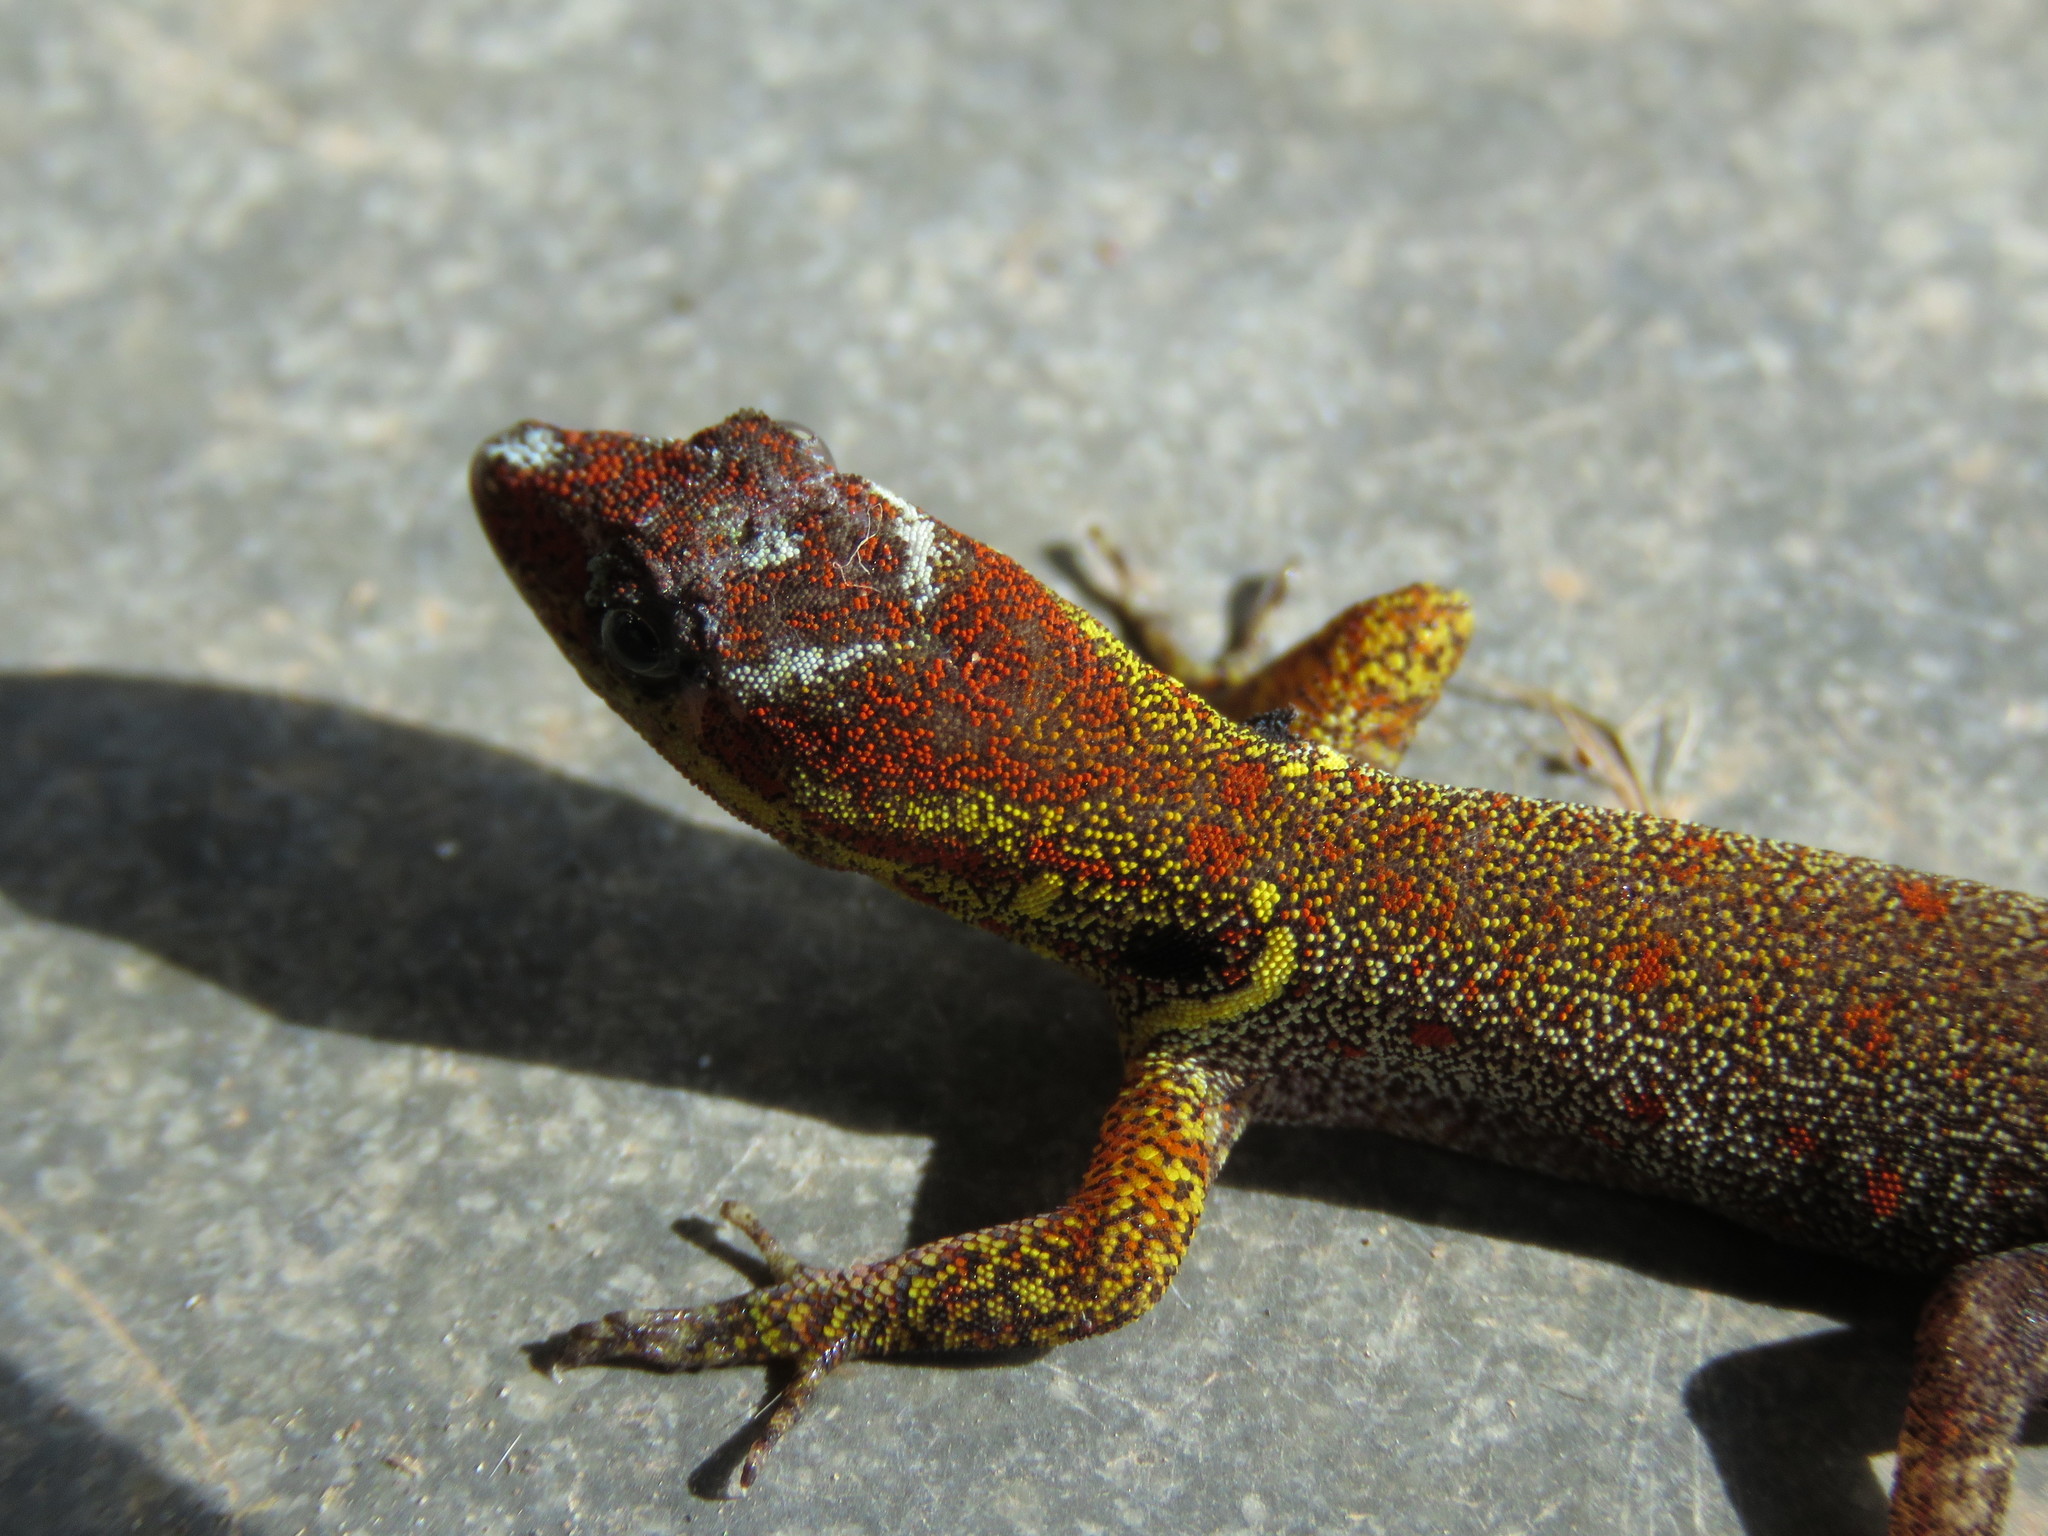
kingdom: Animalia
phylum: Chordata
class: Squamata
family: Sphaerodactylidae
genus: Gonatodes
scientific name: Gonatodes humeralis
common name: South american clawed gecko
